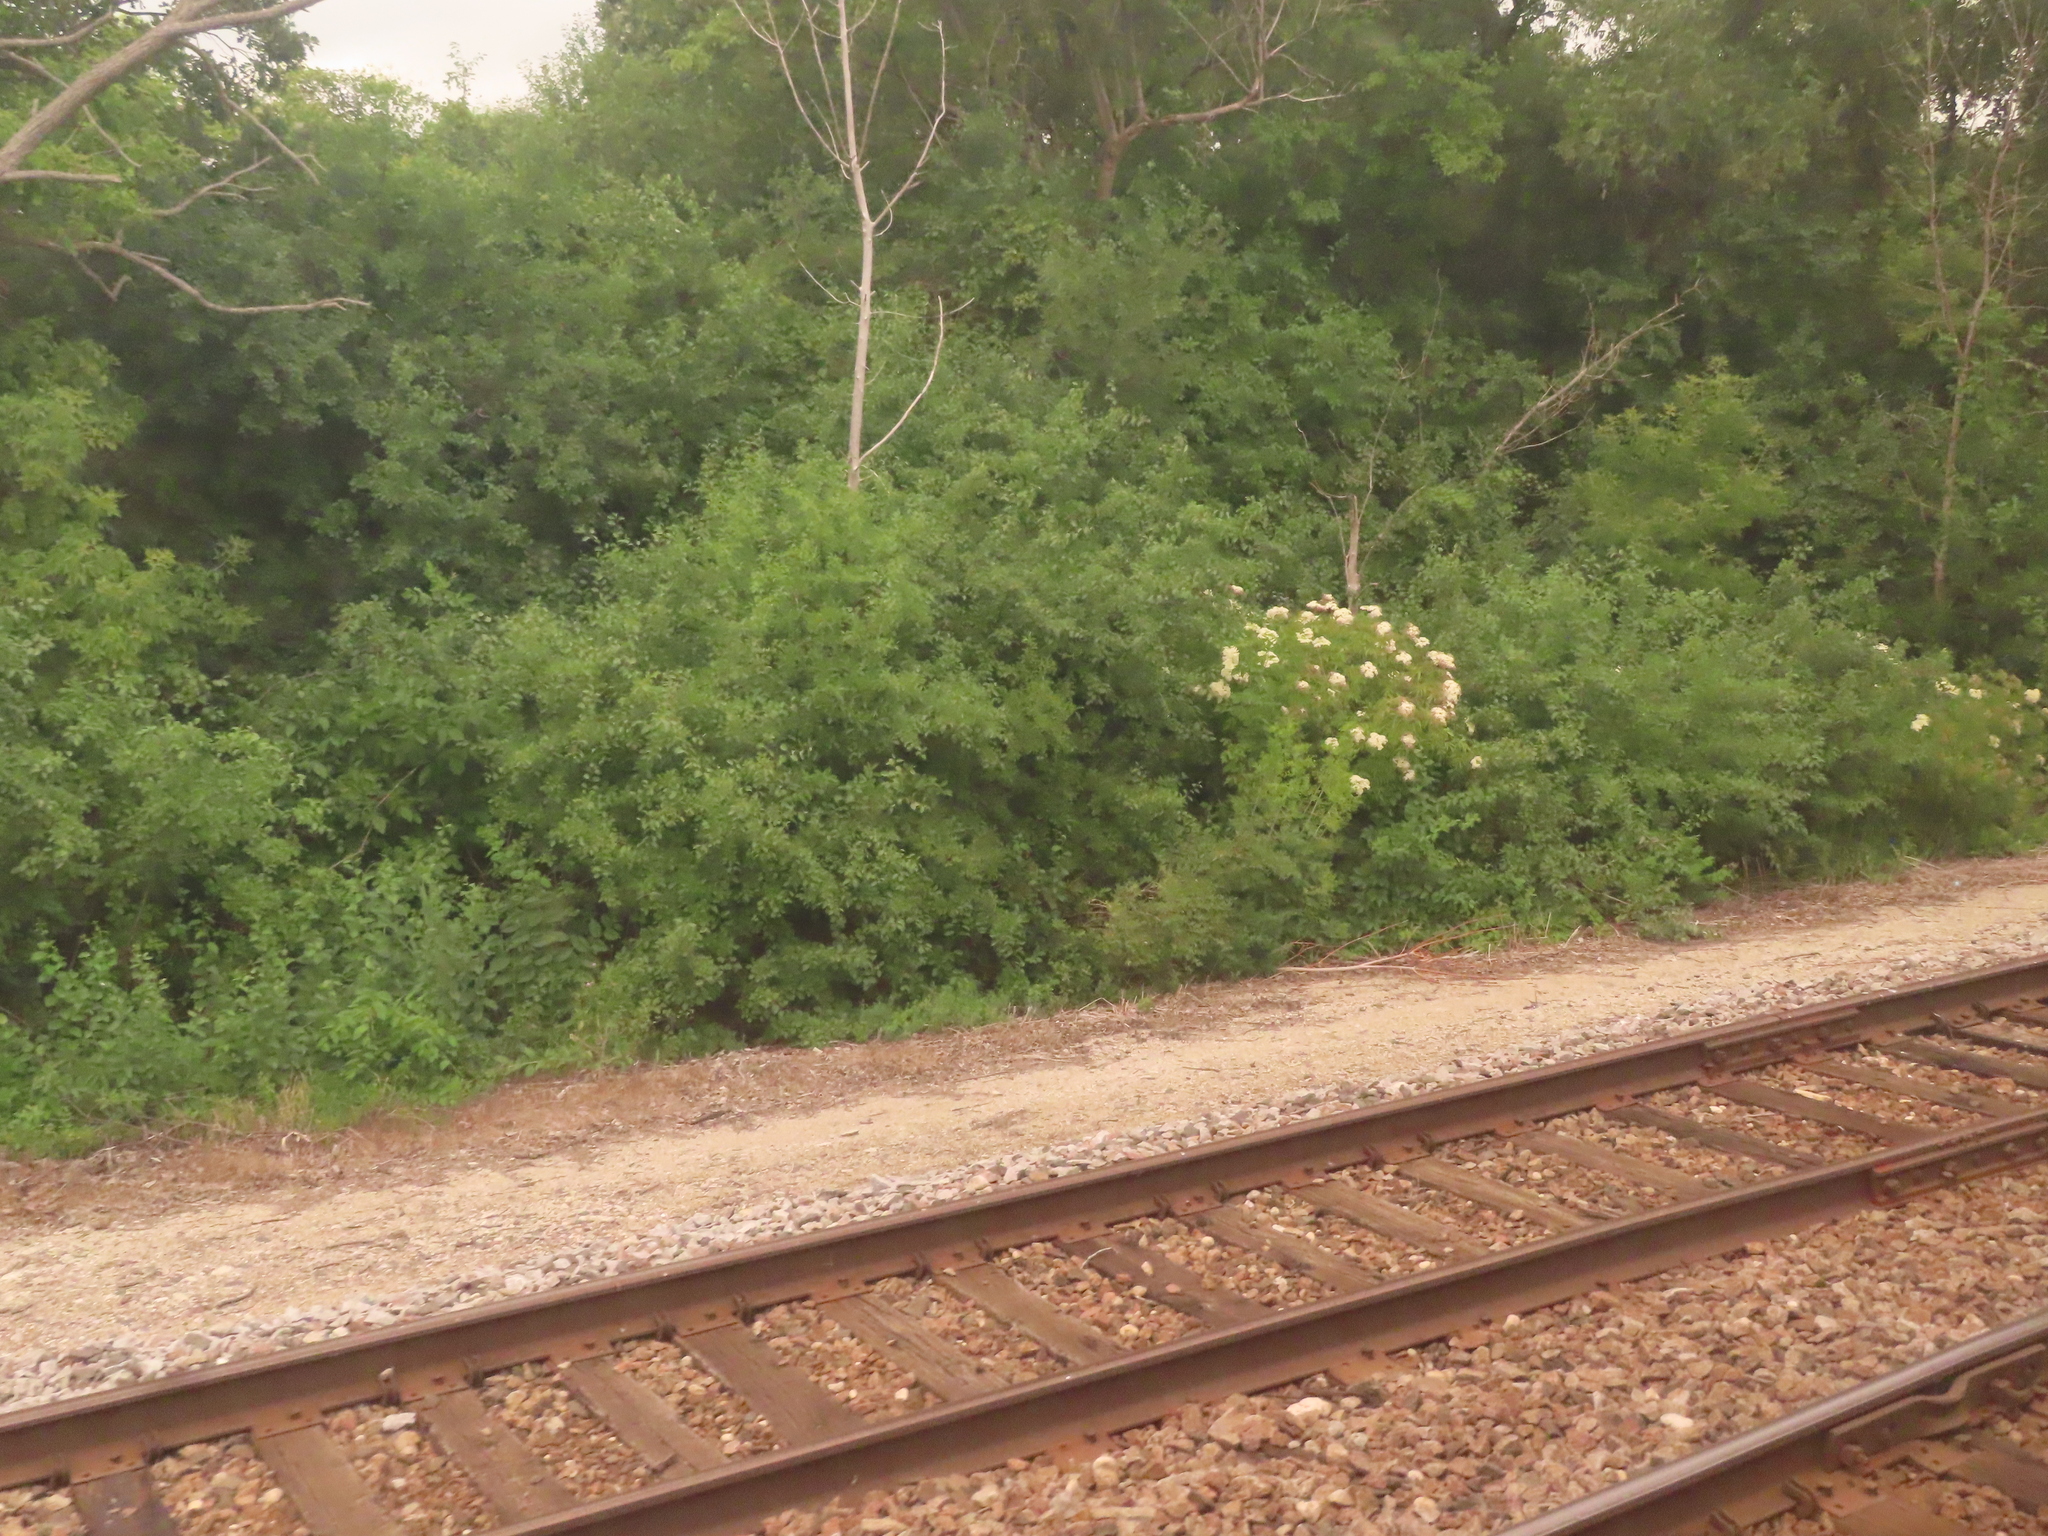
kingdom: Plantae
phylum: Tracheophyta
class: Magnoliopsida
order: Dipsacales
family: Viburnaceae
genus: Sambucus
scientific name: Sambucus canadensis
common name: American elder
